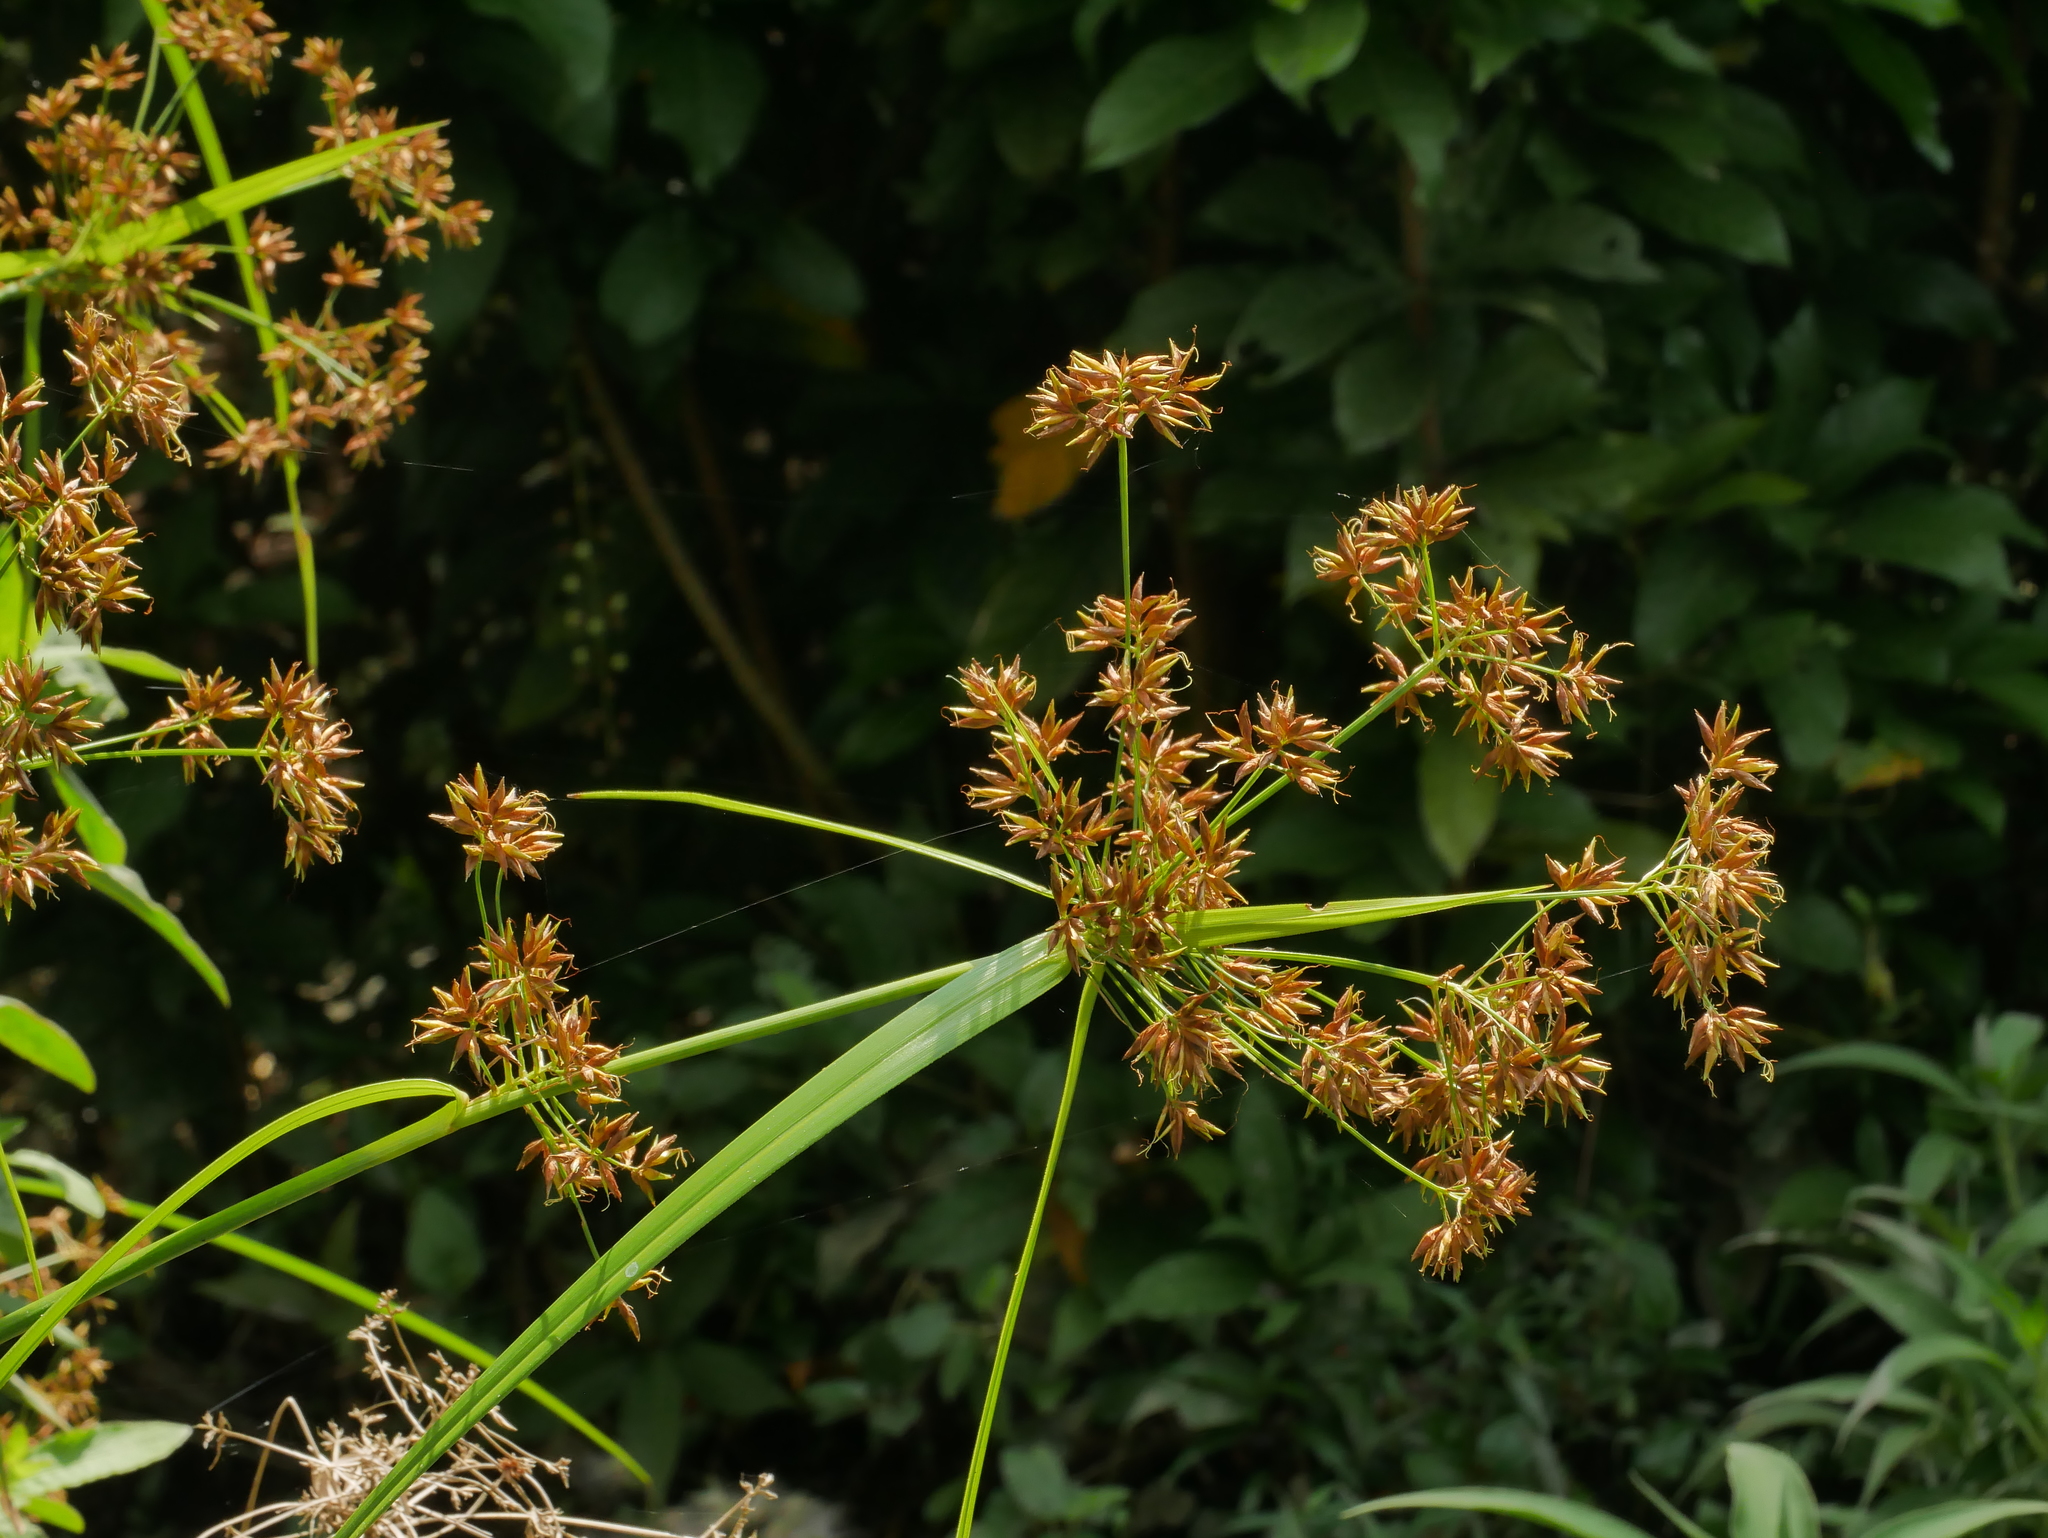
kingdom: Plantae
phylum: Tracheophyta
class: Liliopsida
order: Poales
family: Cyperaceae
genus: Rhynchospora
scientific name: Rhynchospora corymbosa
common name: Golden beak sedge
